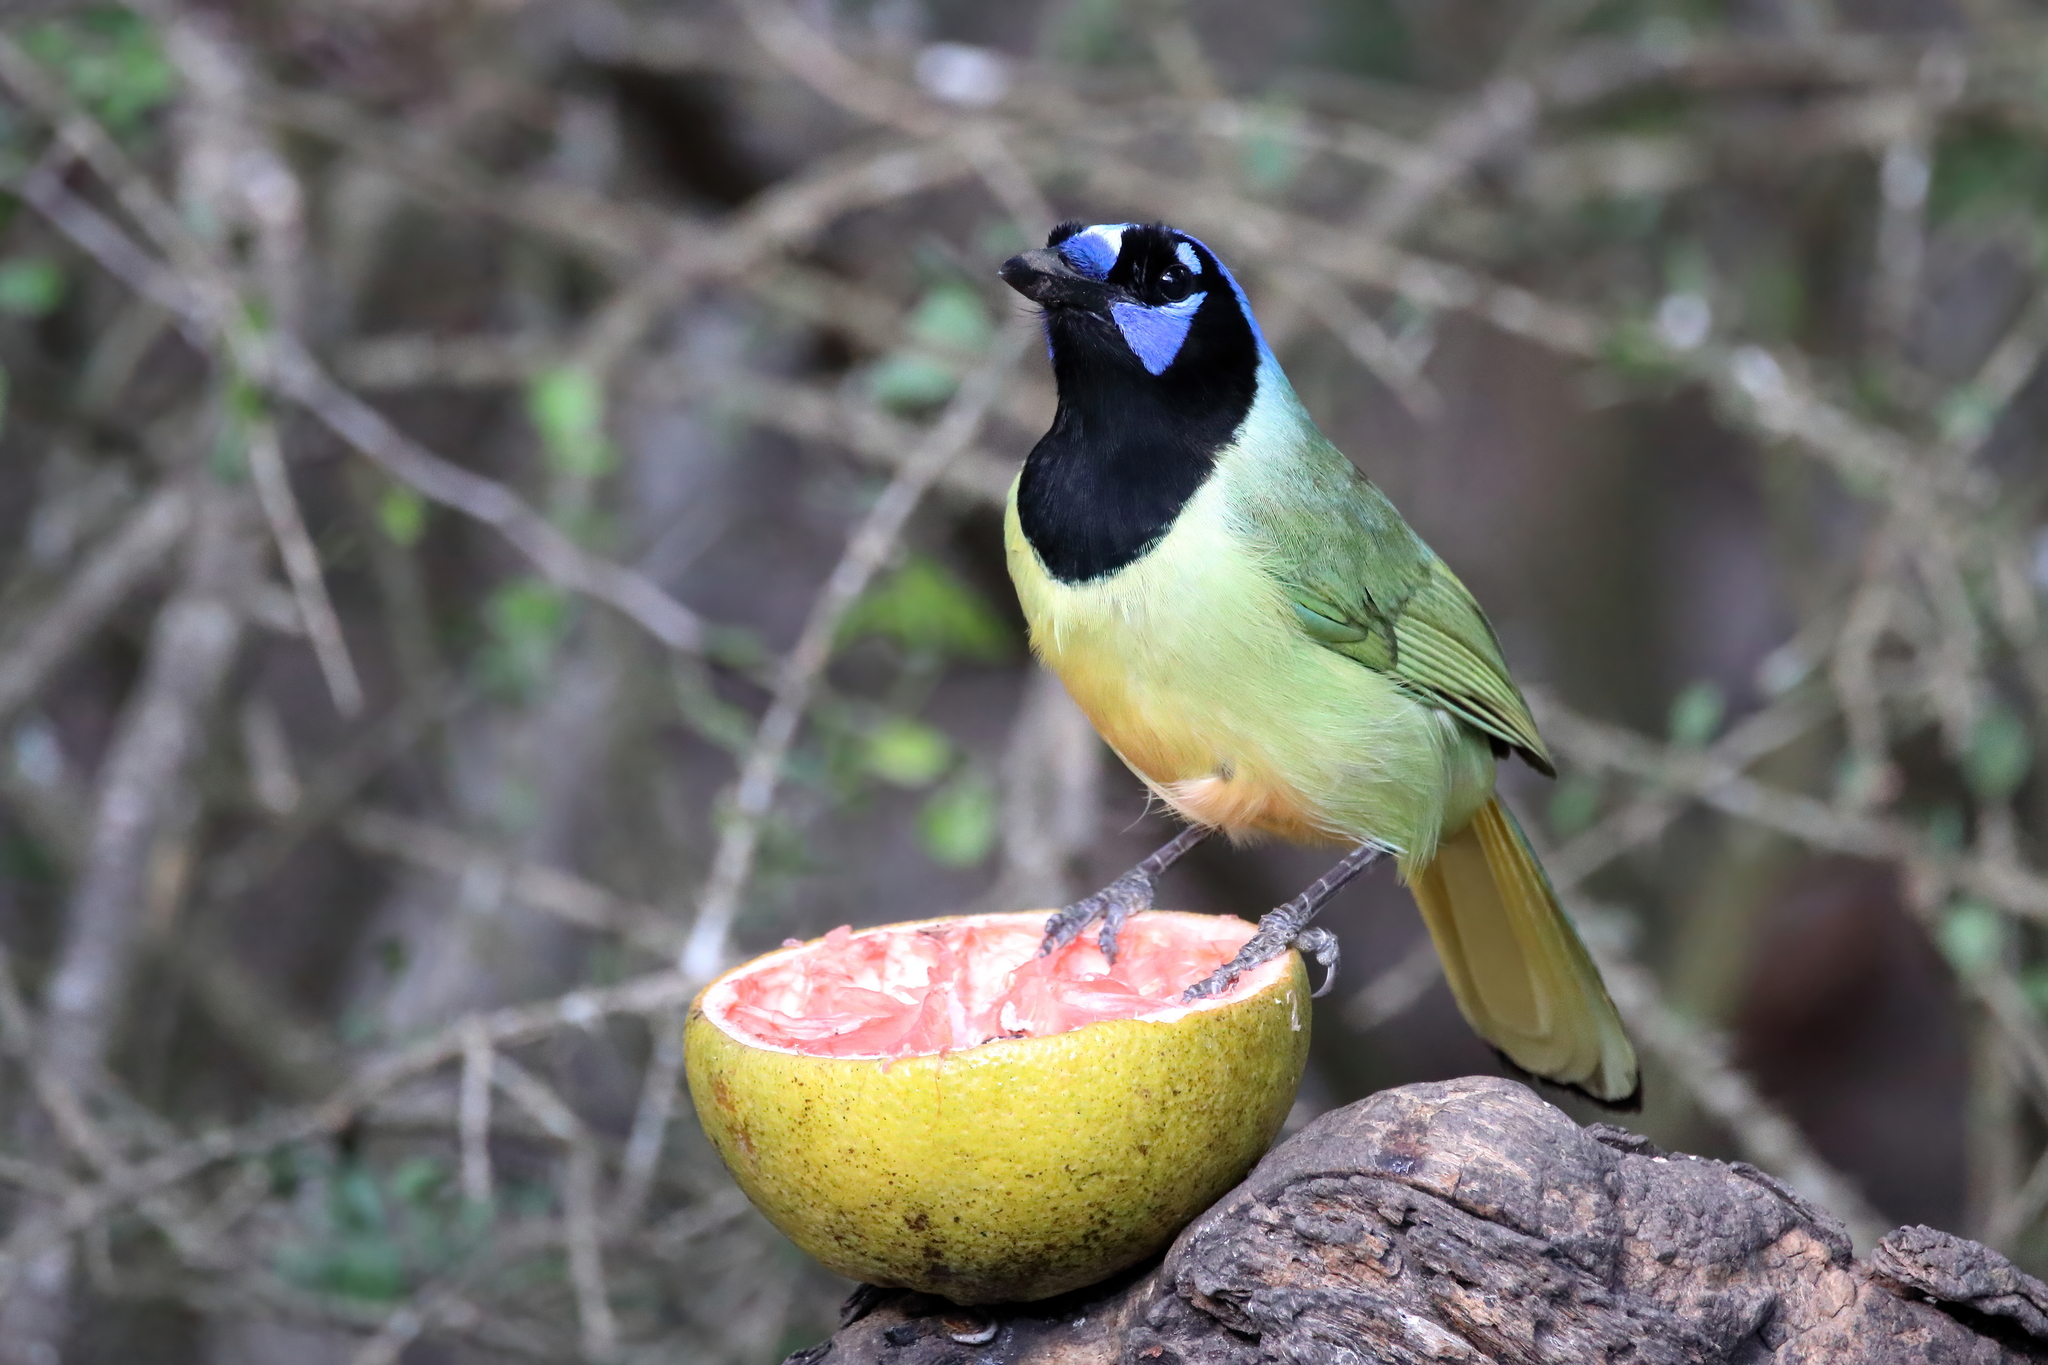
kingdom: Animalia
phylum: Chordata
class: Aves
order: Passeriformes
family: Corvidae
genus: Cyanocorax
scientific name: Cyanocorax yncas
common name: Green jay
